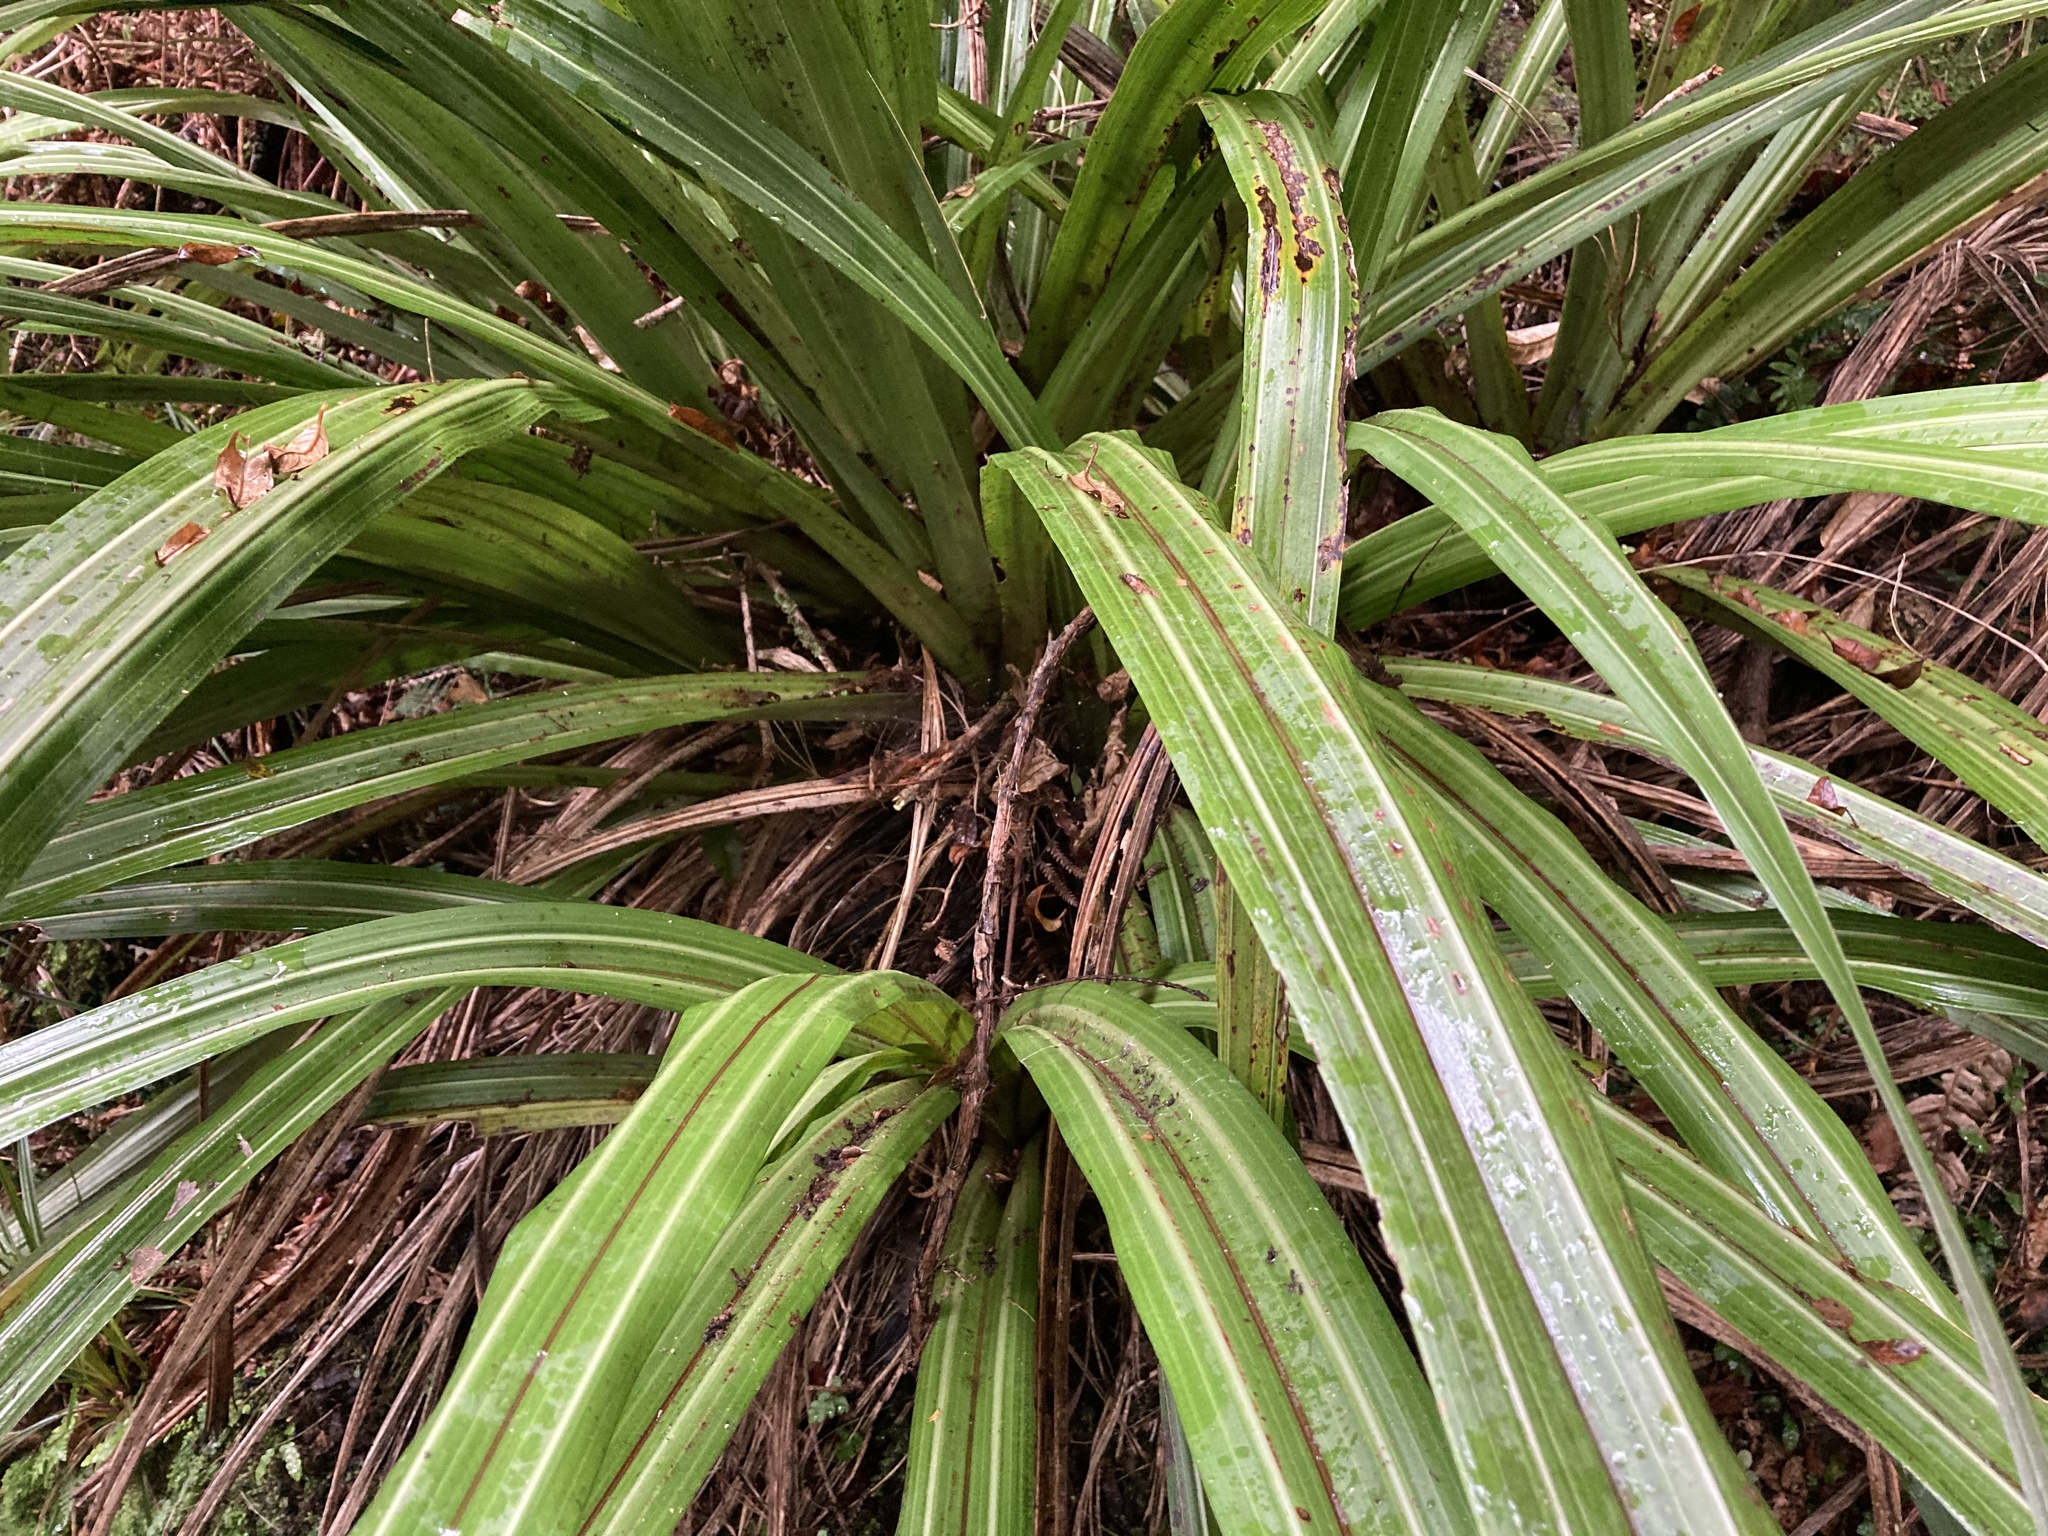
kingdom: Plantae
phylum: Tracheophyta
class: Liliopsida
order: Asparagales
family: Asteliaceae
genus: Astelia
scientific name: Astelia fragrans
